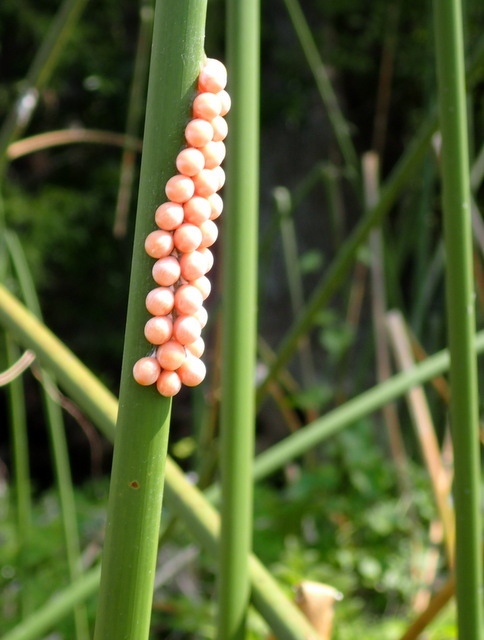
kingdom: Animalia
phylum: Mollusca
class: Gastropoda
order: Architaenioglossa
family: Ampullariidae
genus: Pomacea
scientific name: Pomacea paludosa
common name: Florida applesnail
